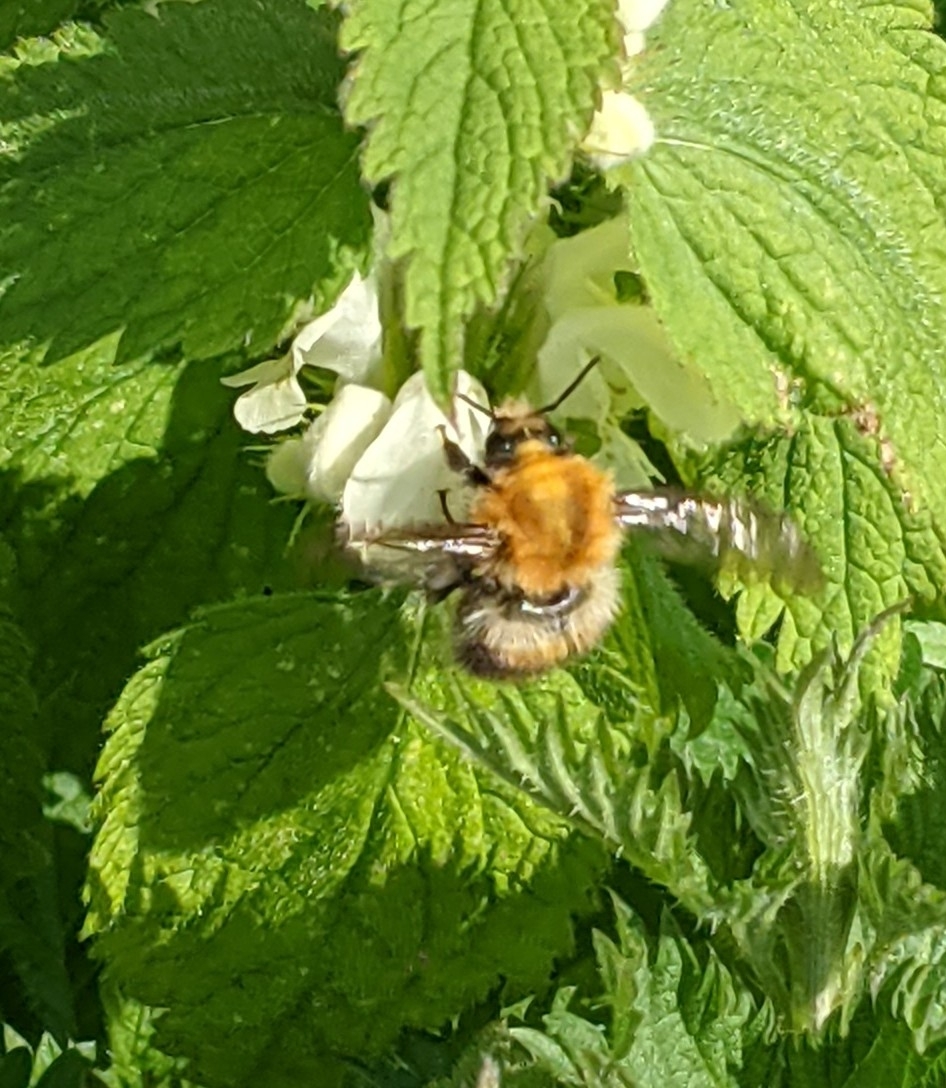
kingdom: Animalia
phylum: Arthropoda
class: Insecta
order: Hymenoptera
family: Apidae
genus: Bombus
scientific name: Bombus pascuorum
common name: Common carder bee
